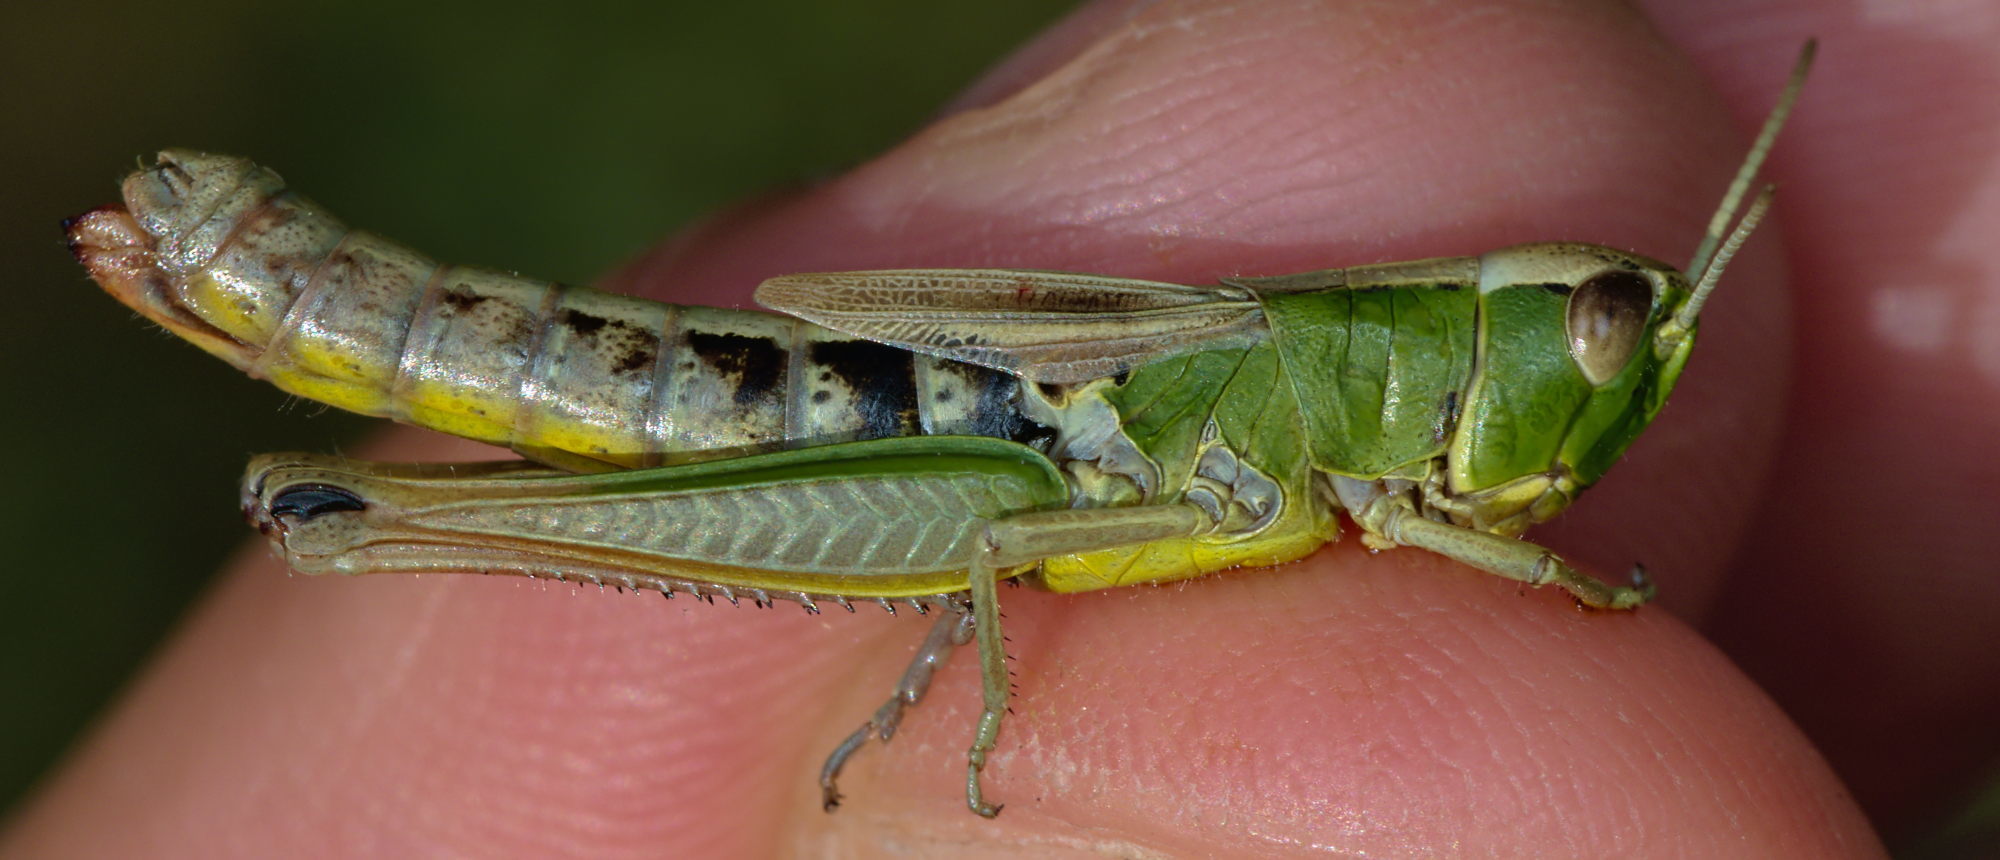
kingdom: Animalia
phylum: Arthropoda
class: Insecta
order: Orthoptera
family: Acrididae
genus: Pseudochorthippus
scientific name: Pseudochorthippus parallelus
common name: Meadow grasshopper
